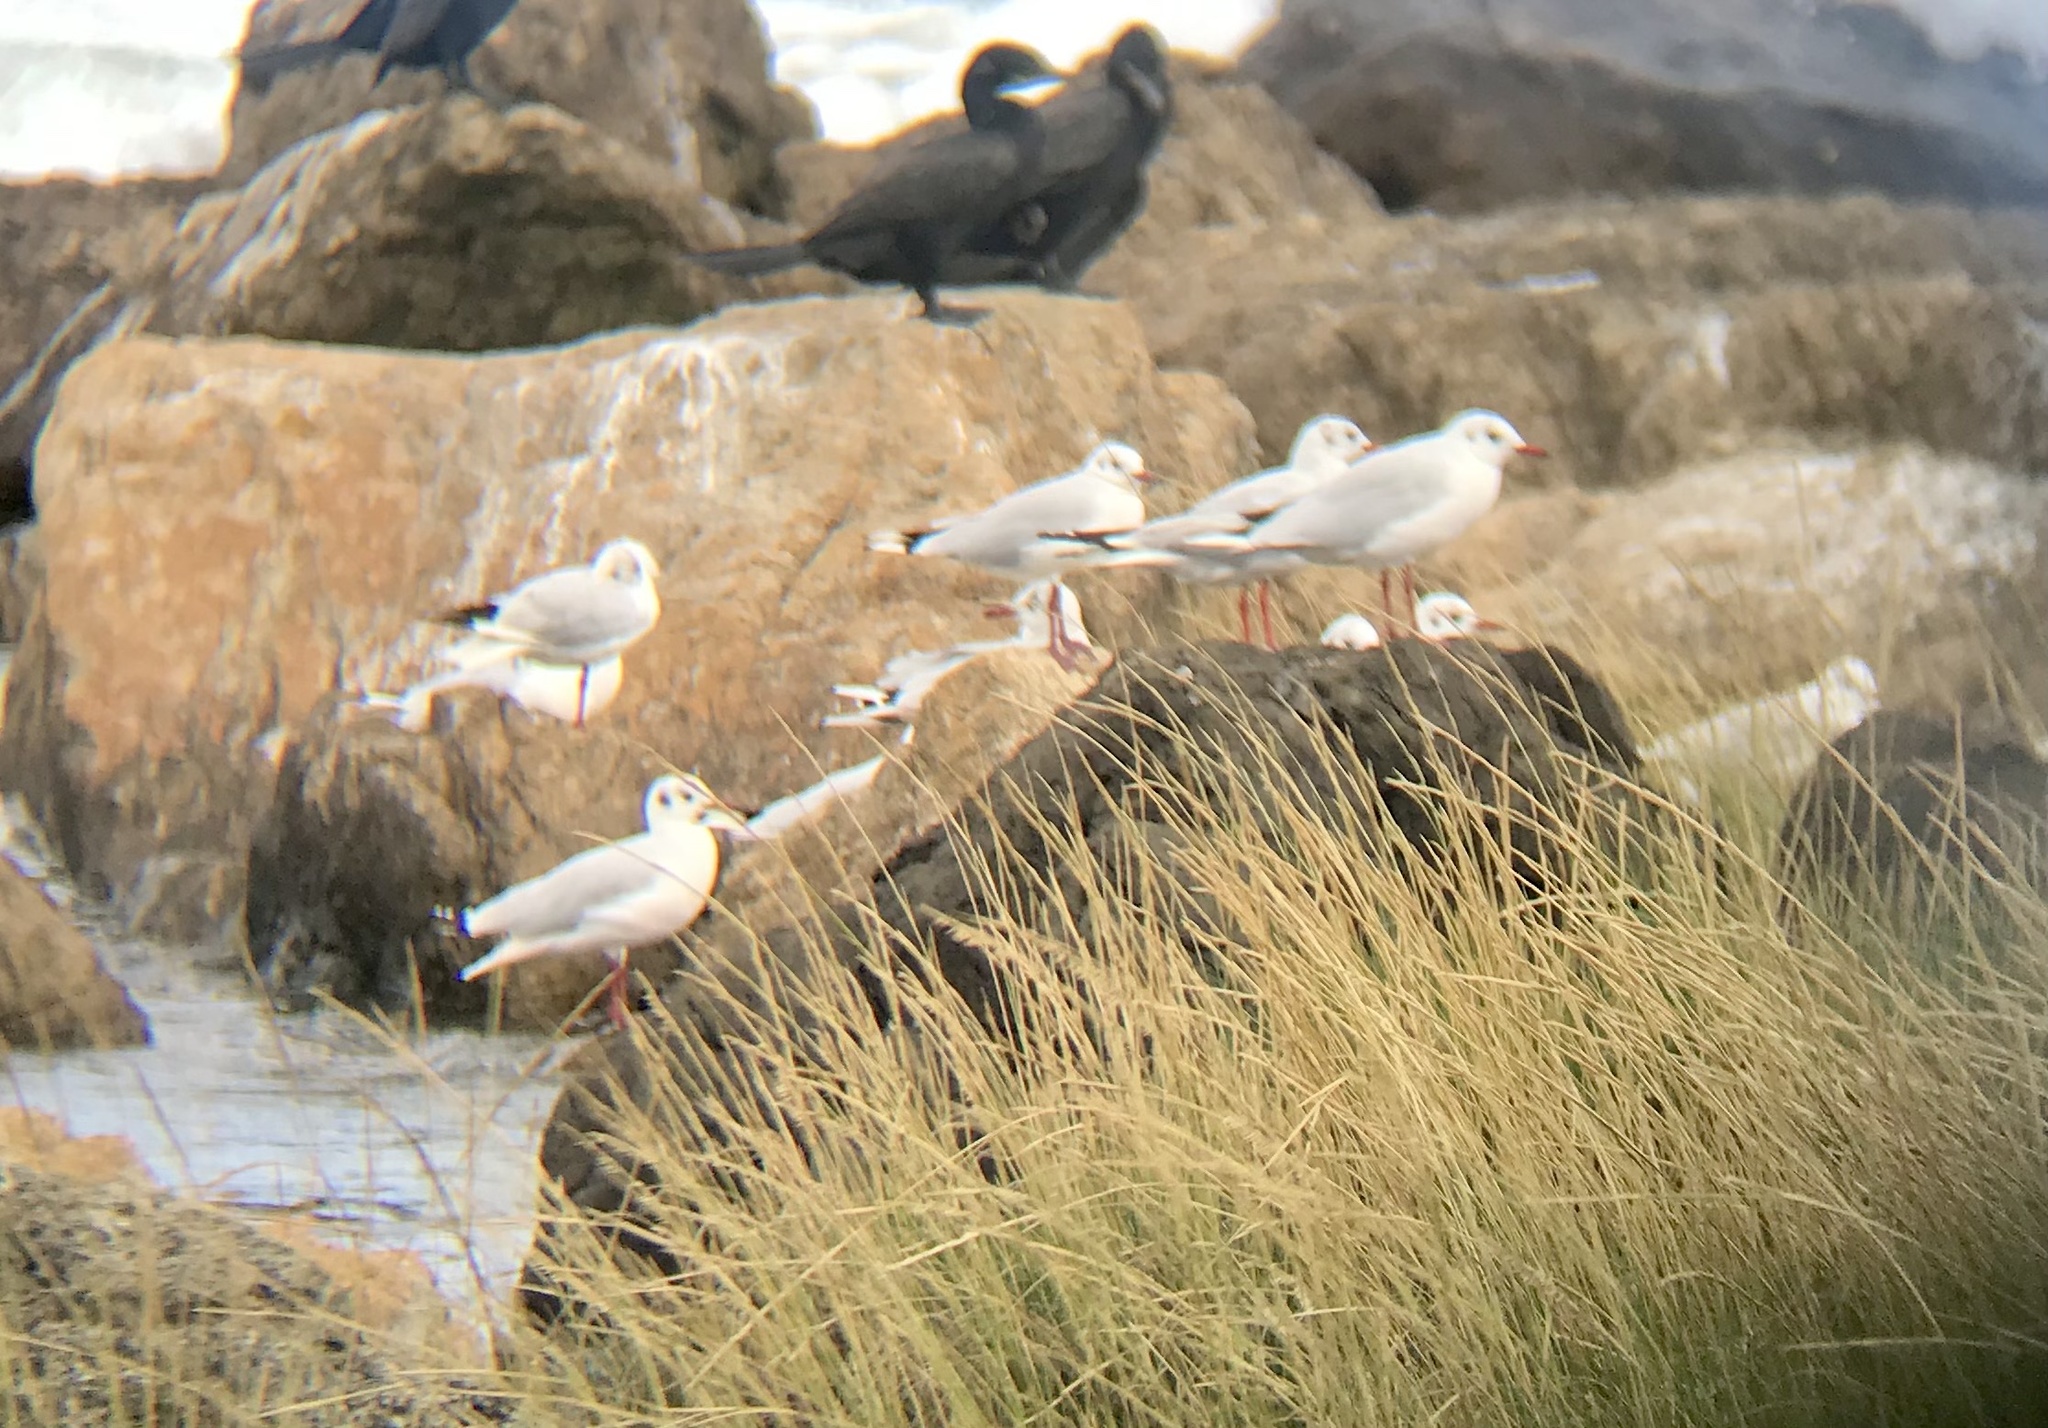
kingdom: Animalia
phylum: Chordata
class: Aves
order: Charadriiformes
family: Laridae
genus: Chroicocephalus
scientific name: Chroicocephalus maculipennis
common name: Brown-hooded gull
